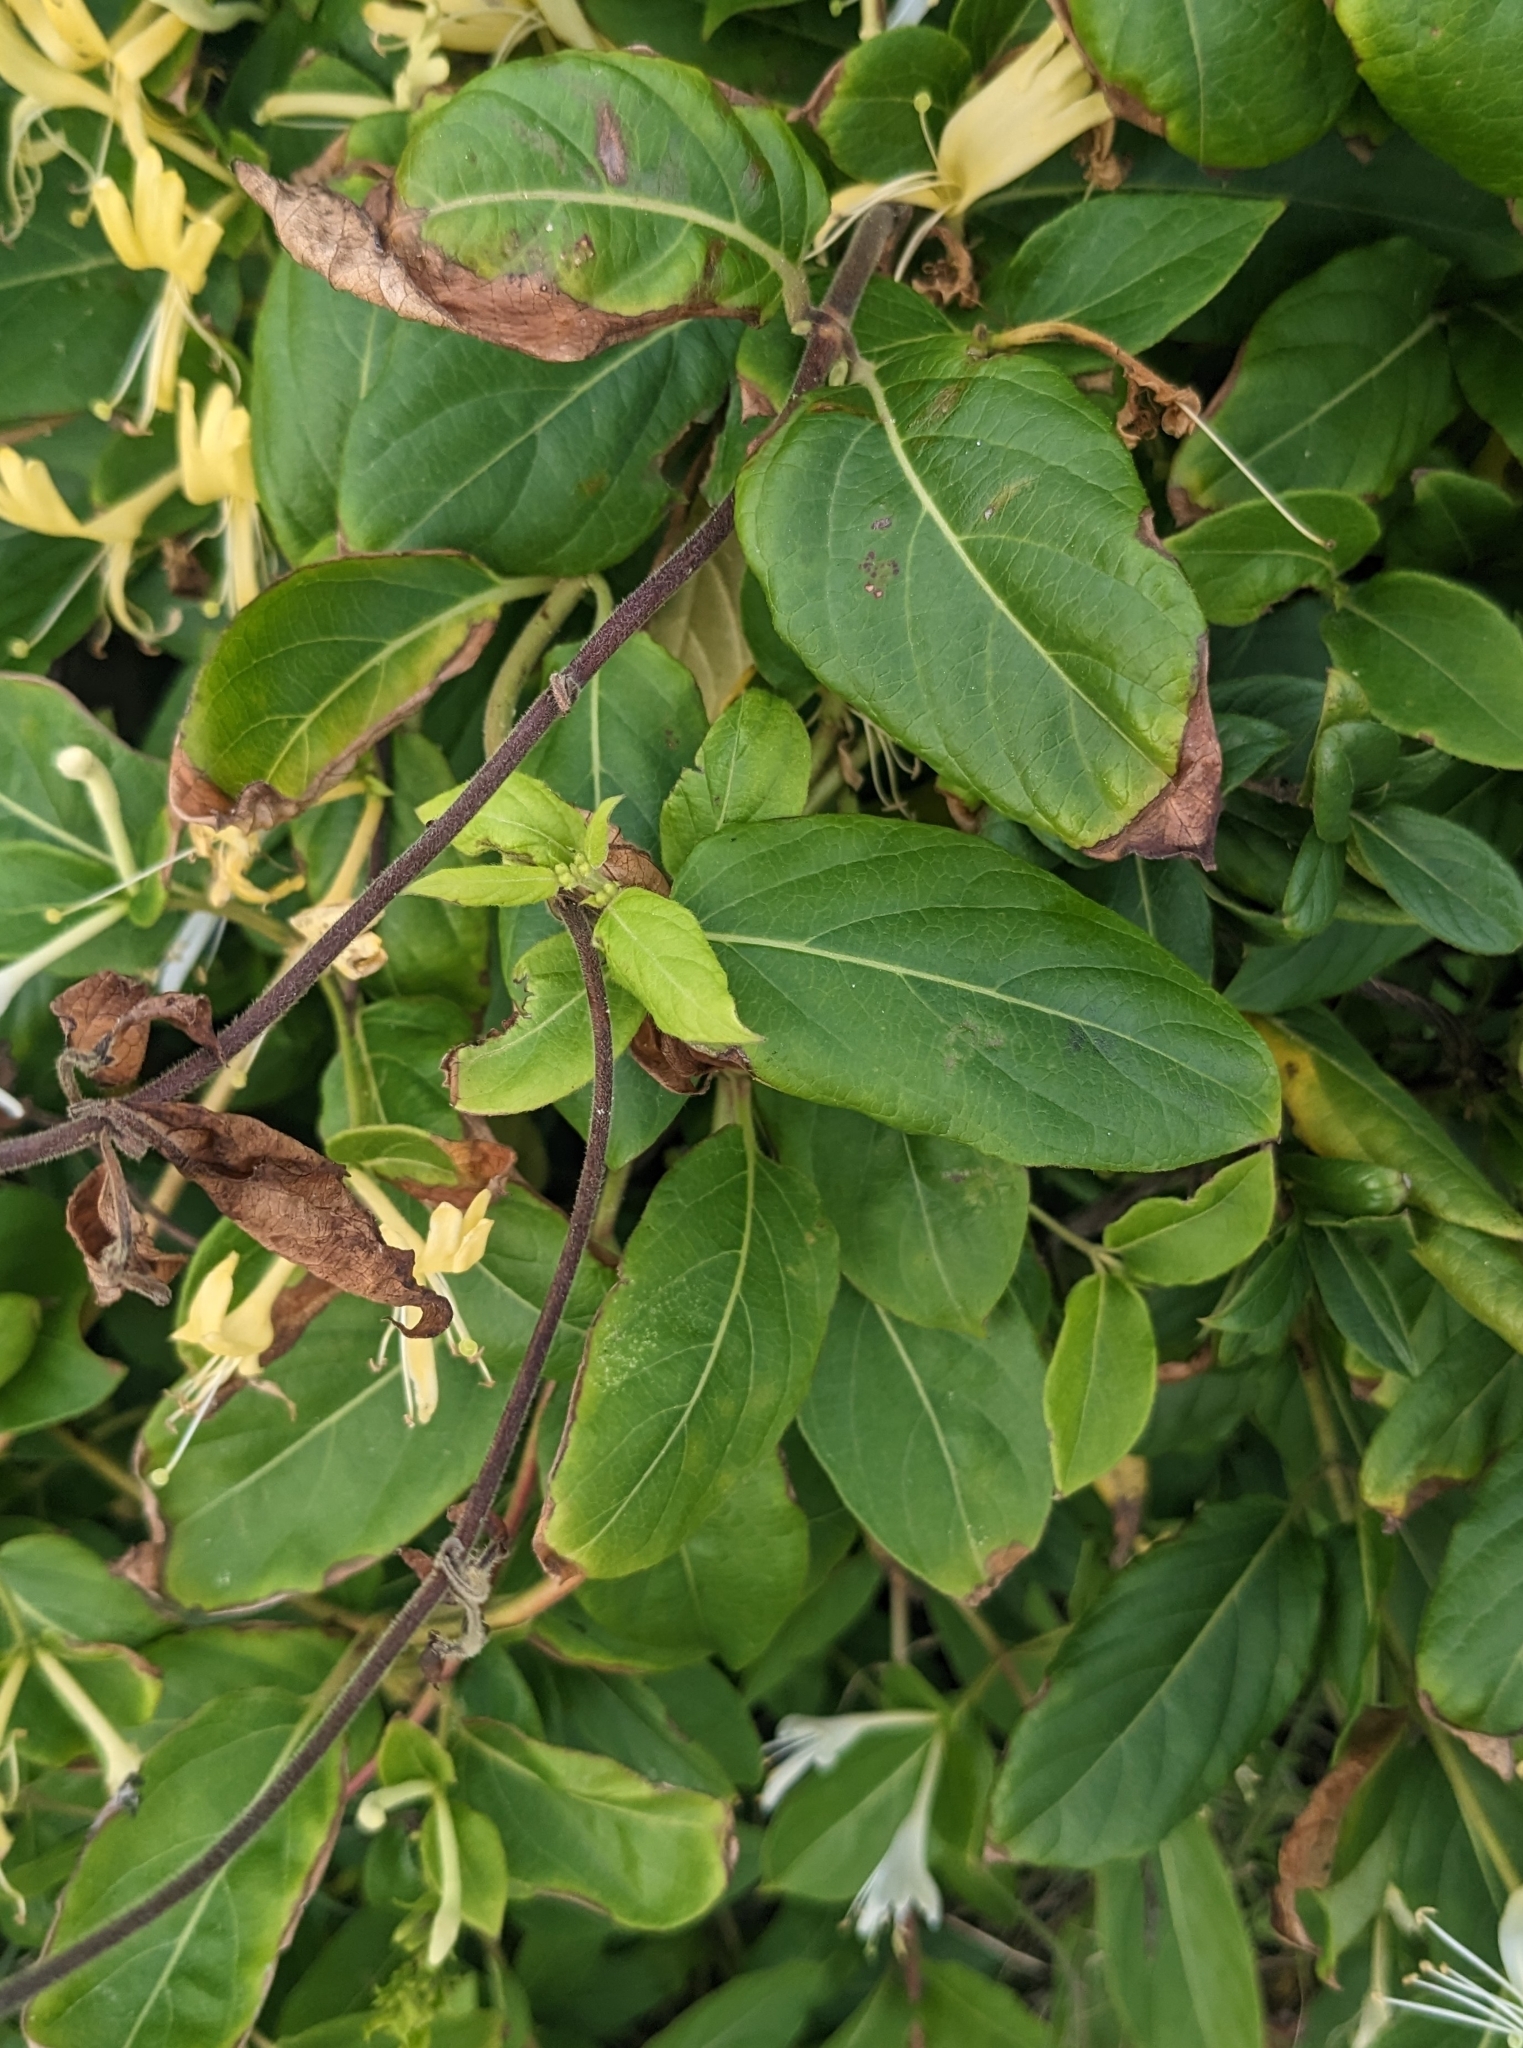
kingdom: Plantae
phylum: Tracheophyta
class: Magnoliopsida
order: Dipsacales
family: Caprifoliaceae
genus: Lonicera
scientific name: Lonicera japonica
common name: Japanese honeysuckle
